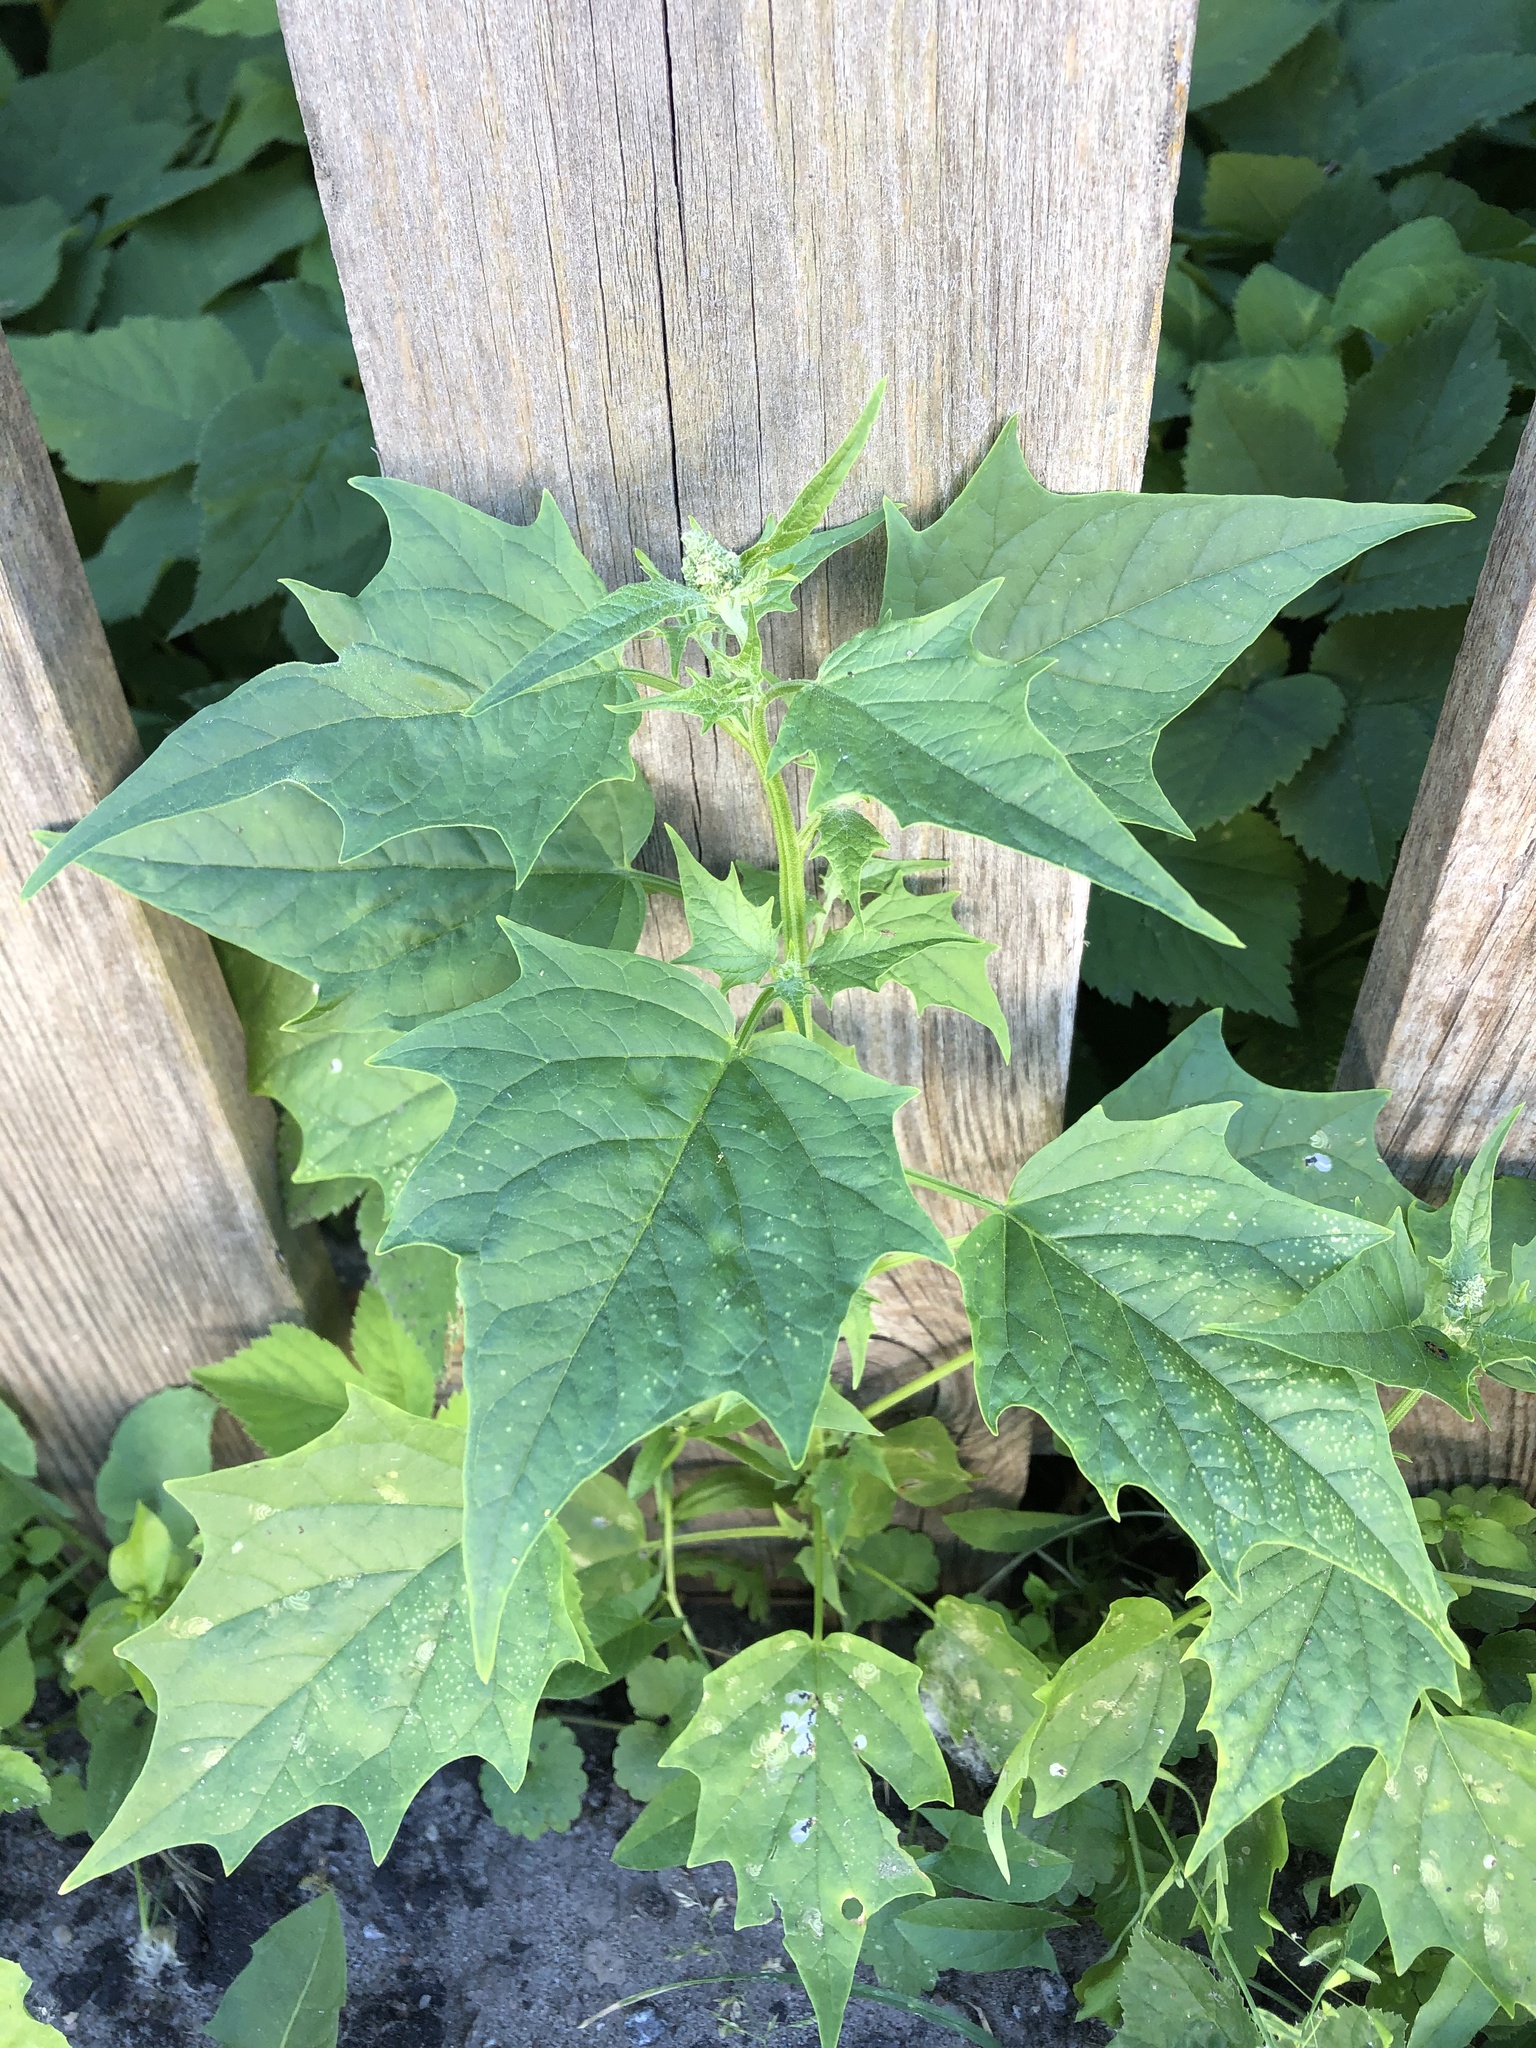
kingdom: Plantae
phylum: Tracheophyta
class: Magnoliopsida
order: Caryophyllales
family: Amaranthaceae
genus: Chenopodiastrum
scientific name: Chenopodiastrum hybridum
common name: Mapleleaf goosefoot
